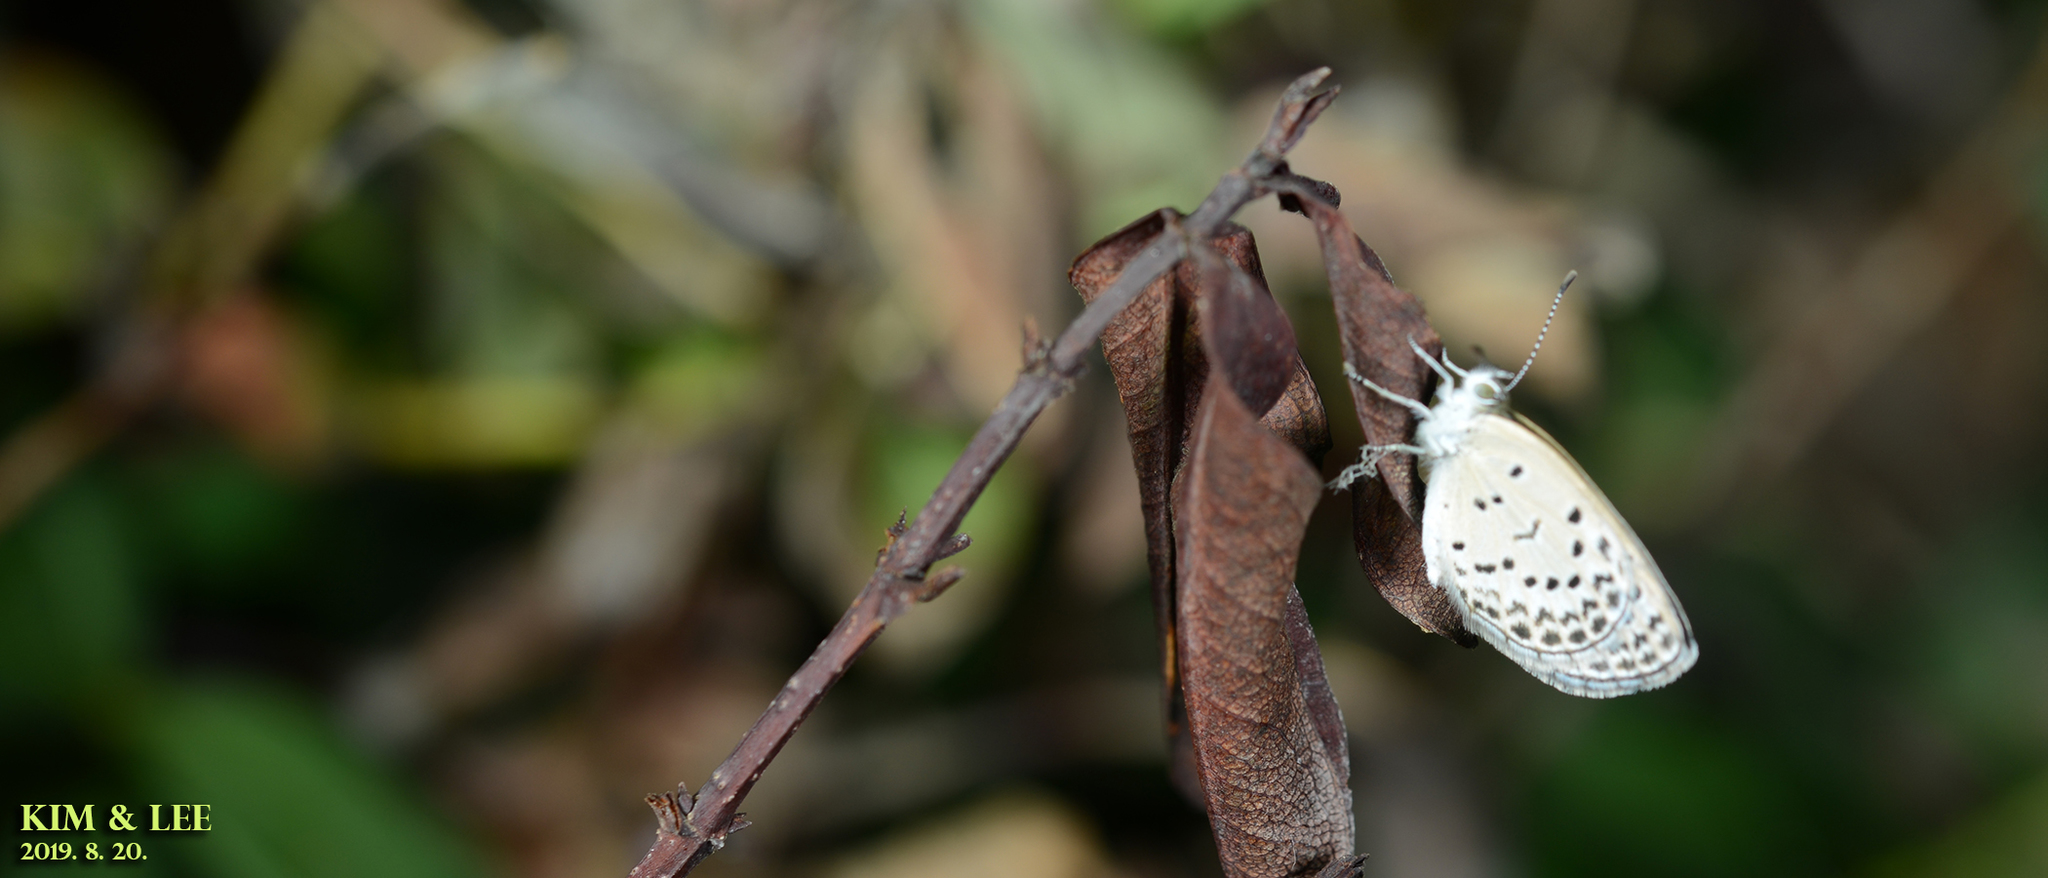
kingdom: Animalia
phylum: Arthropoda
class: Insecta
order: Lepidoptera
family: Lycaenidae
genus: Pseudozizeeria
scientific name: Pseudozizeeria maha
